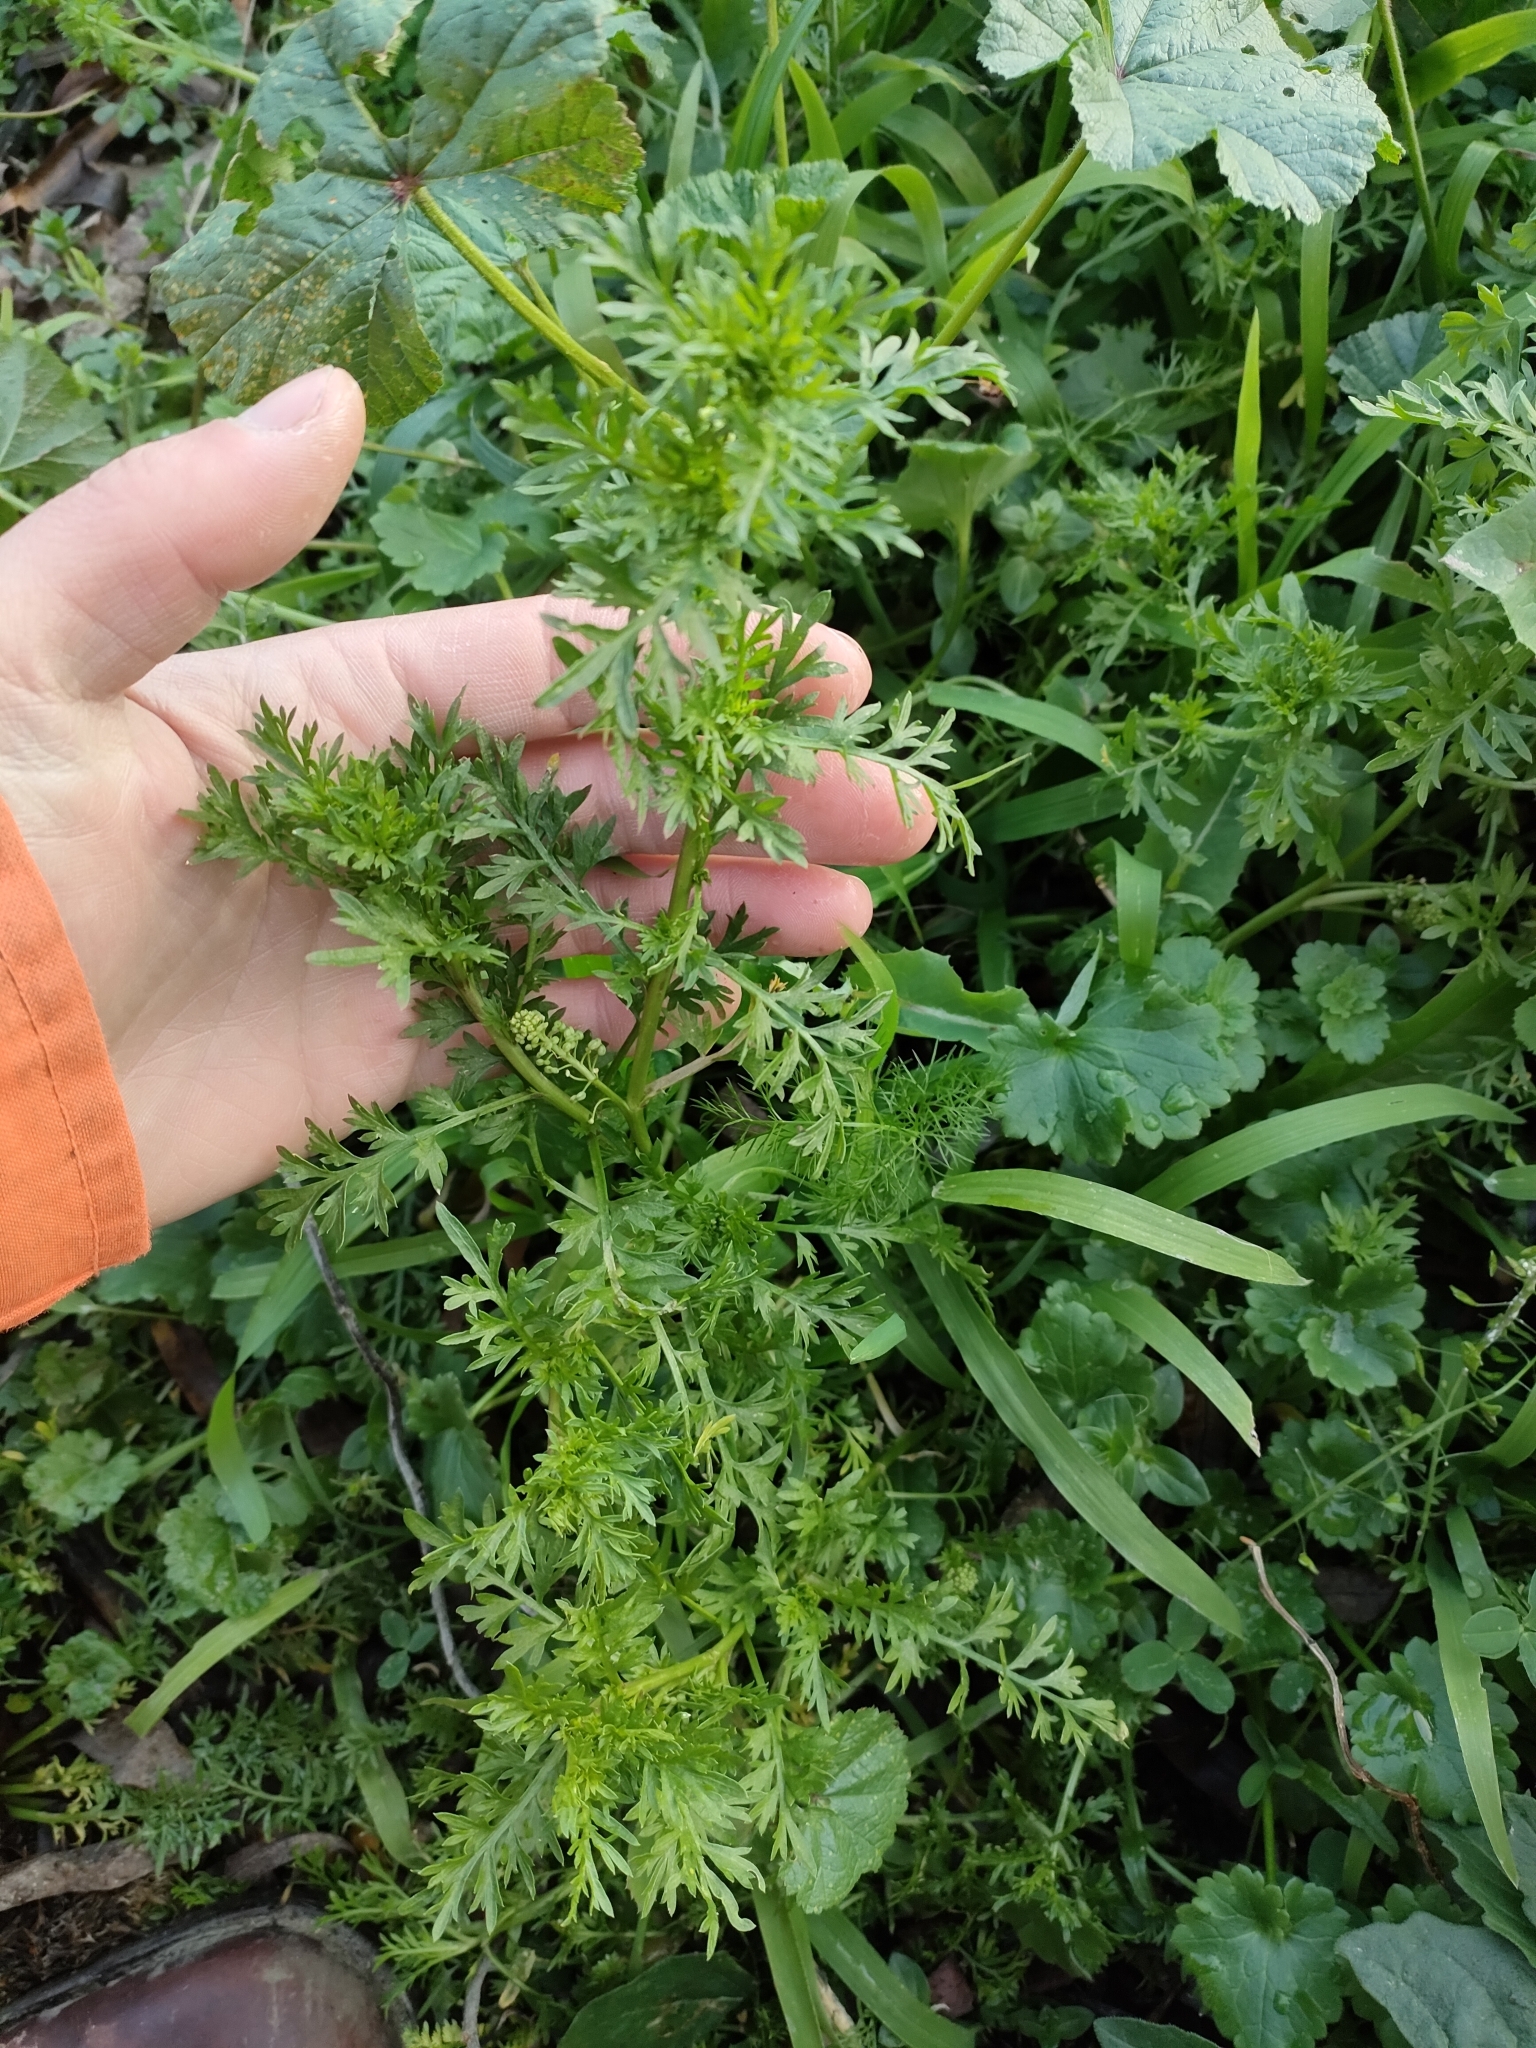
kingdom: Plantae
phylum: Tracheophyta
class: Magnoliopsida
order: Brassicales
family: Brassicaceae
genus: Lepidium
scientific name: Lepidium didymum
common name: Lesser swinecress
